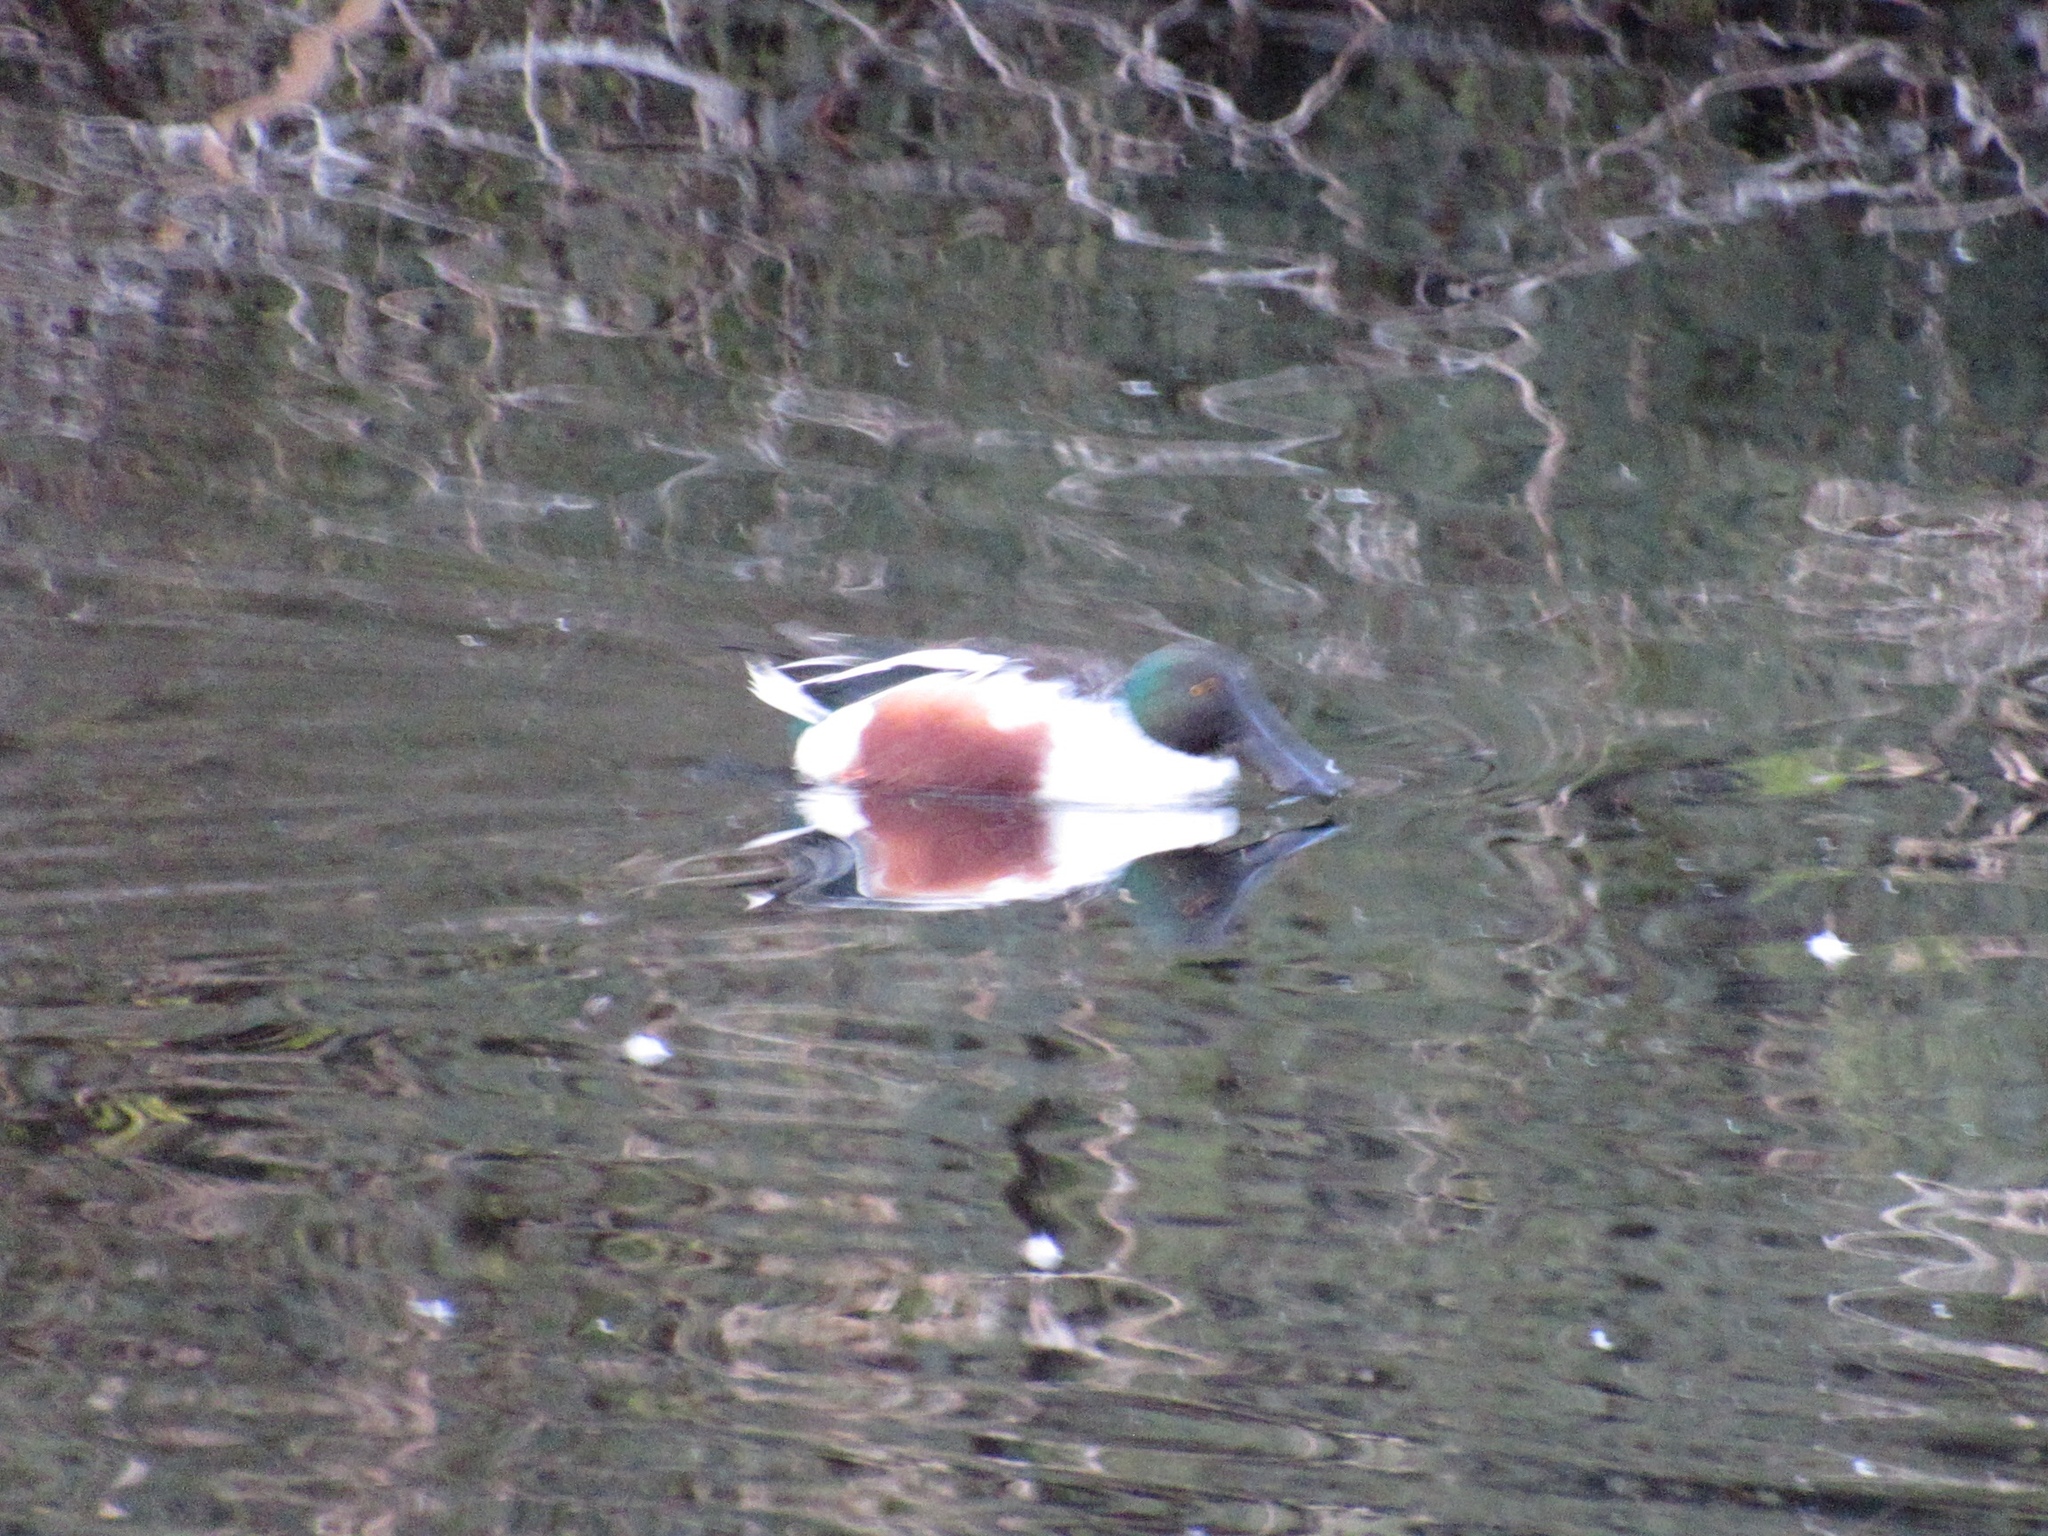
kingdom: Animalia
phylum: Chordata
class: Aves
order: Anseriformes
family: Anatidae
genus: Spatula
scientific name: Spatula clypeata
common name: Northern shoveler
